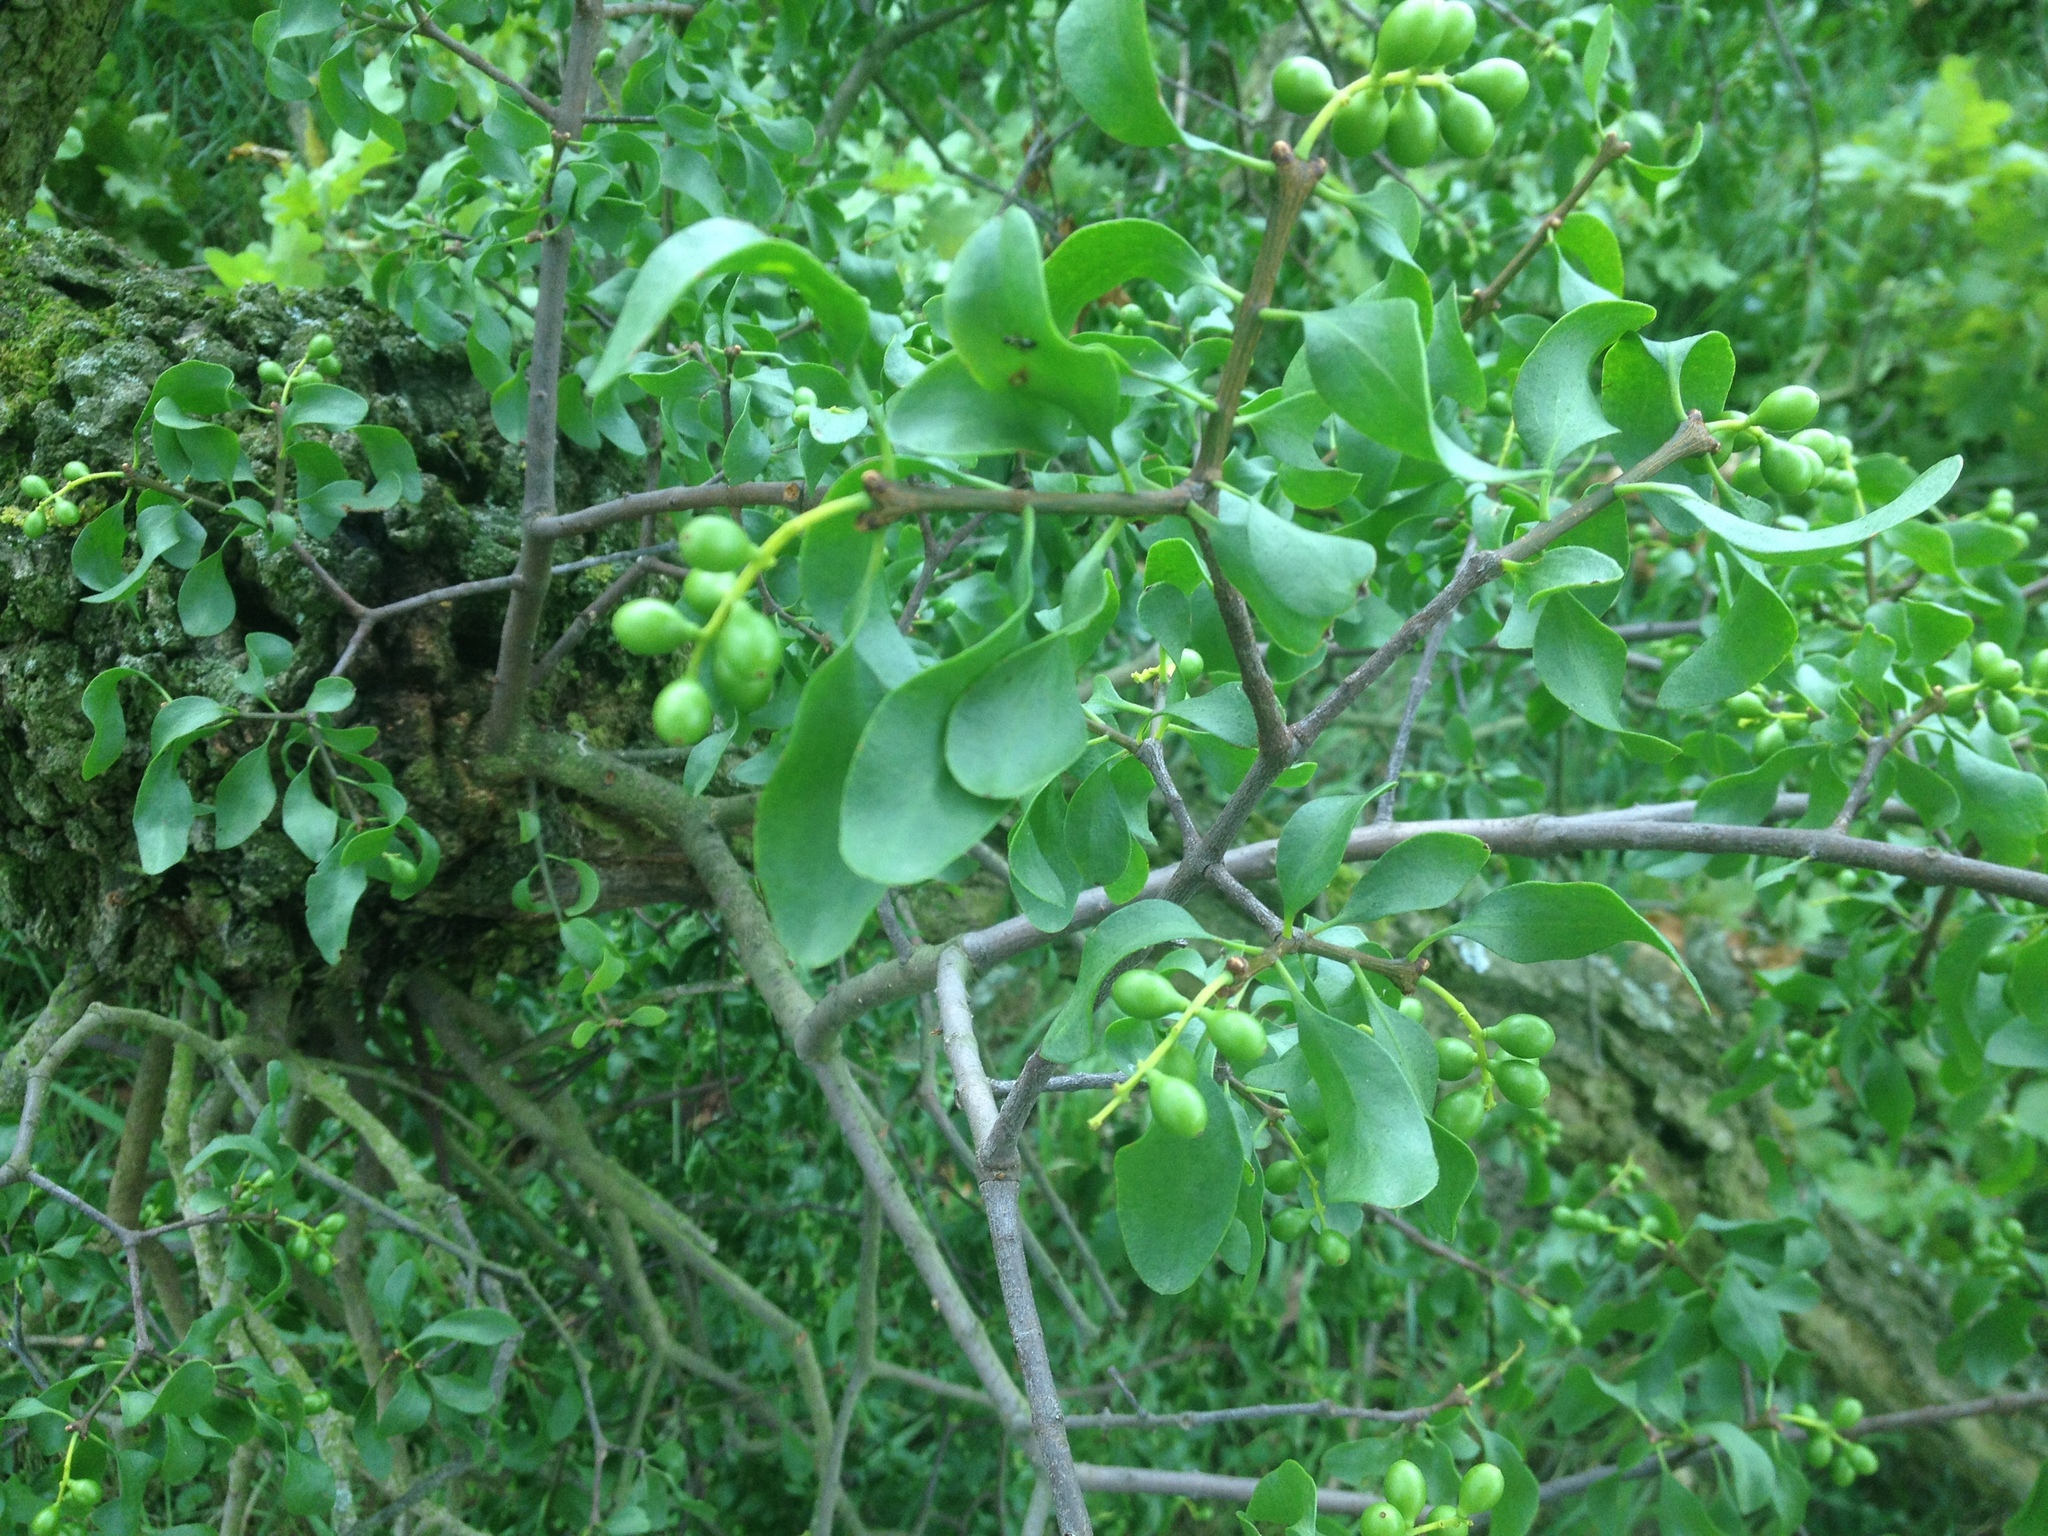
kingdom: Plantae
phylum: Tracheophyta
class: Magnoliopsida
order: Santalales
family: Loranthaceae
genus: Loranthus
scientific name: Loranthus europaeus
